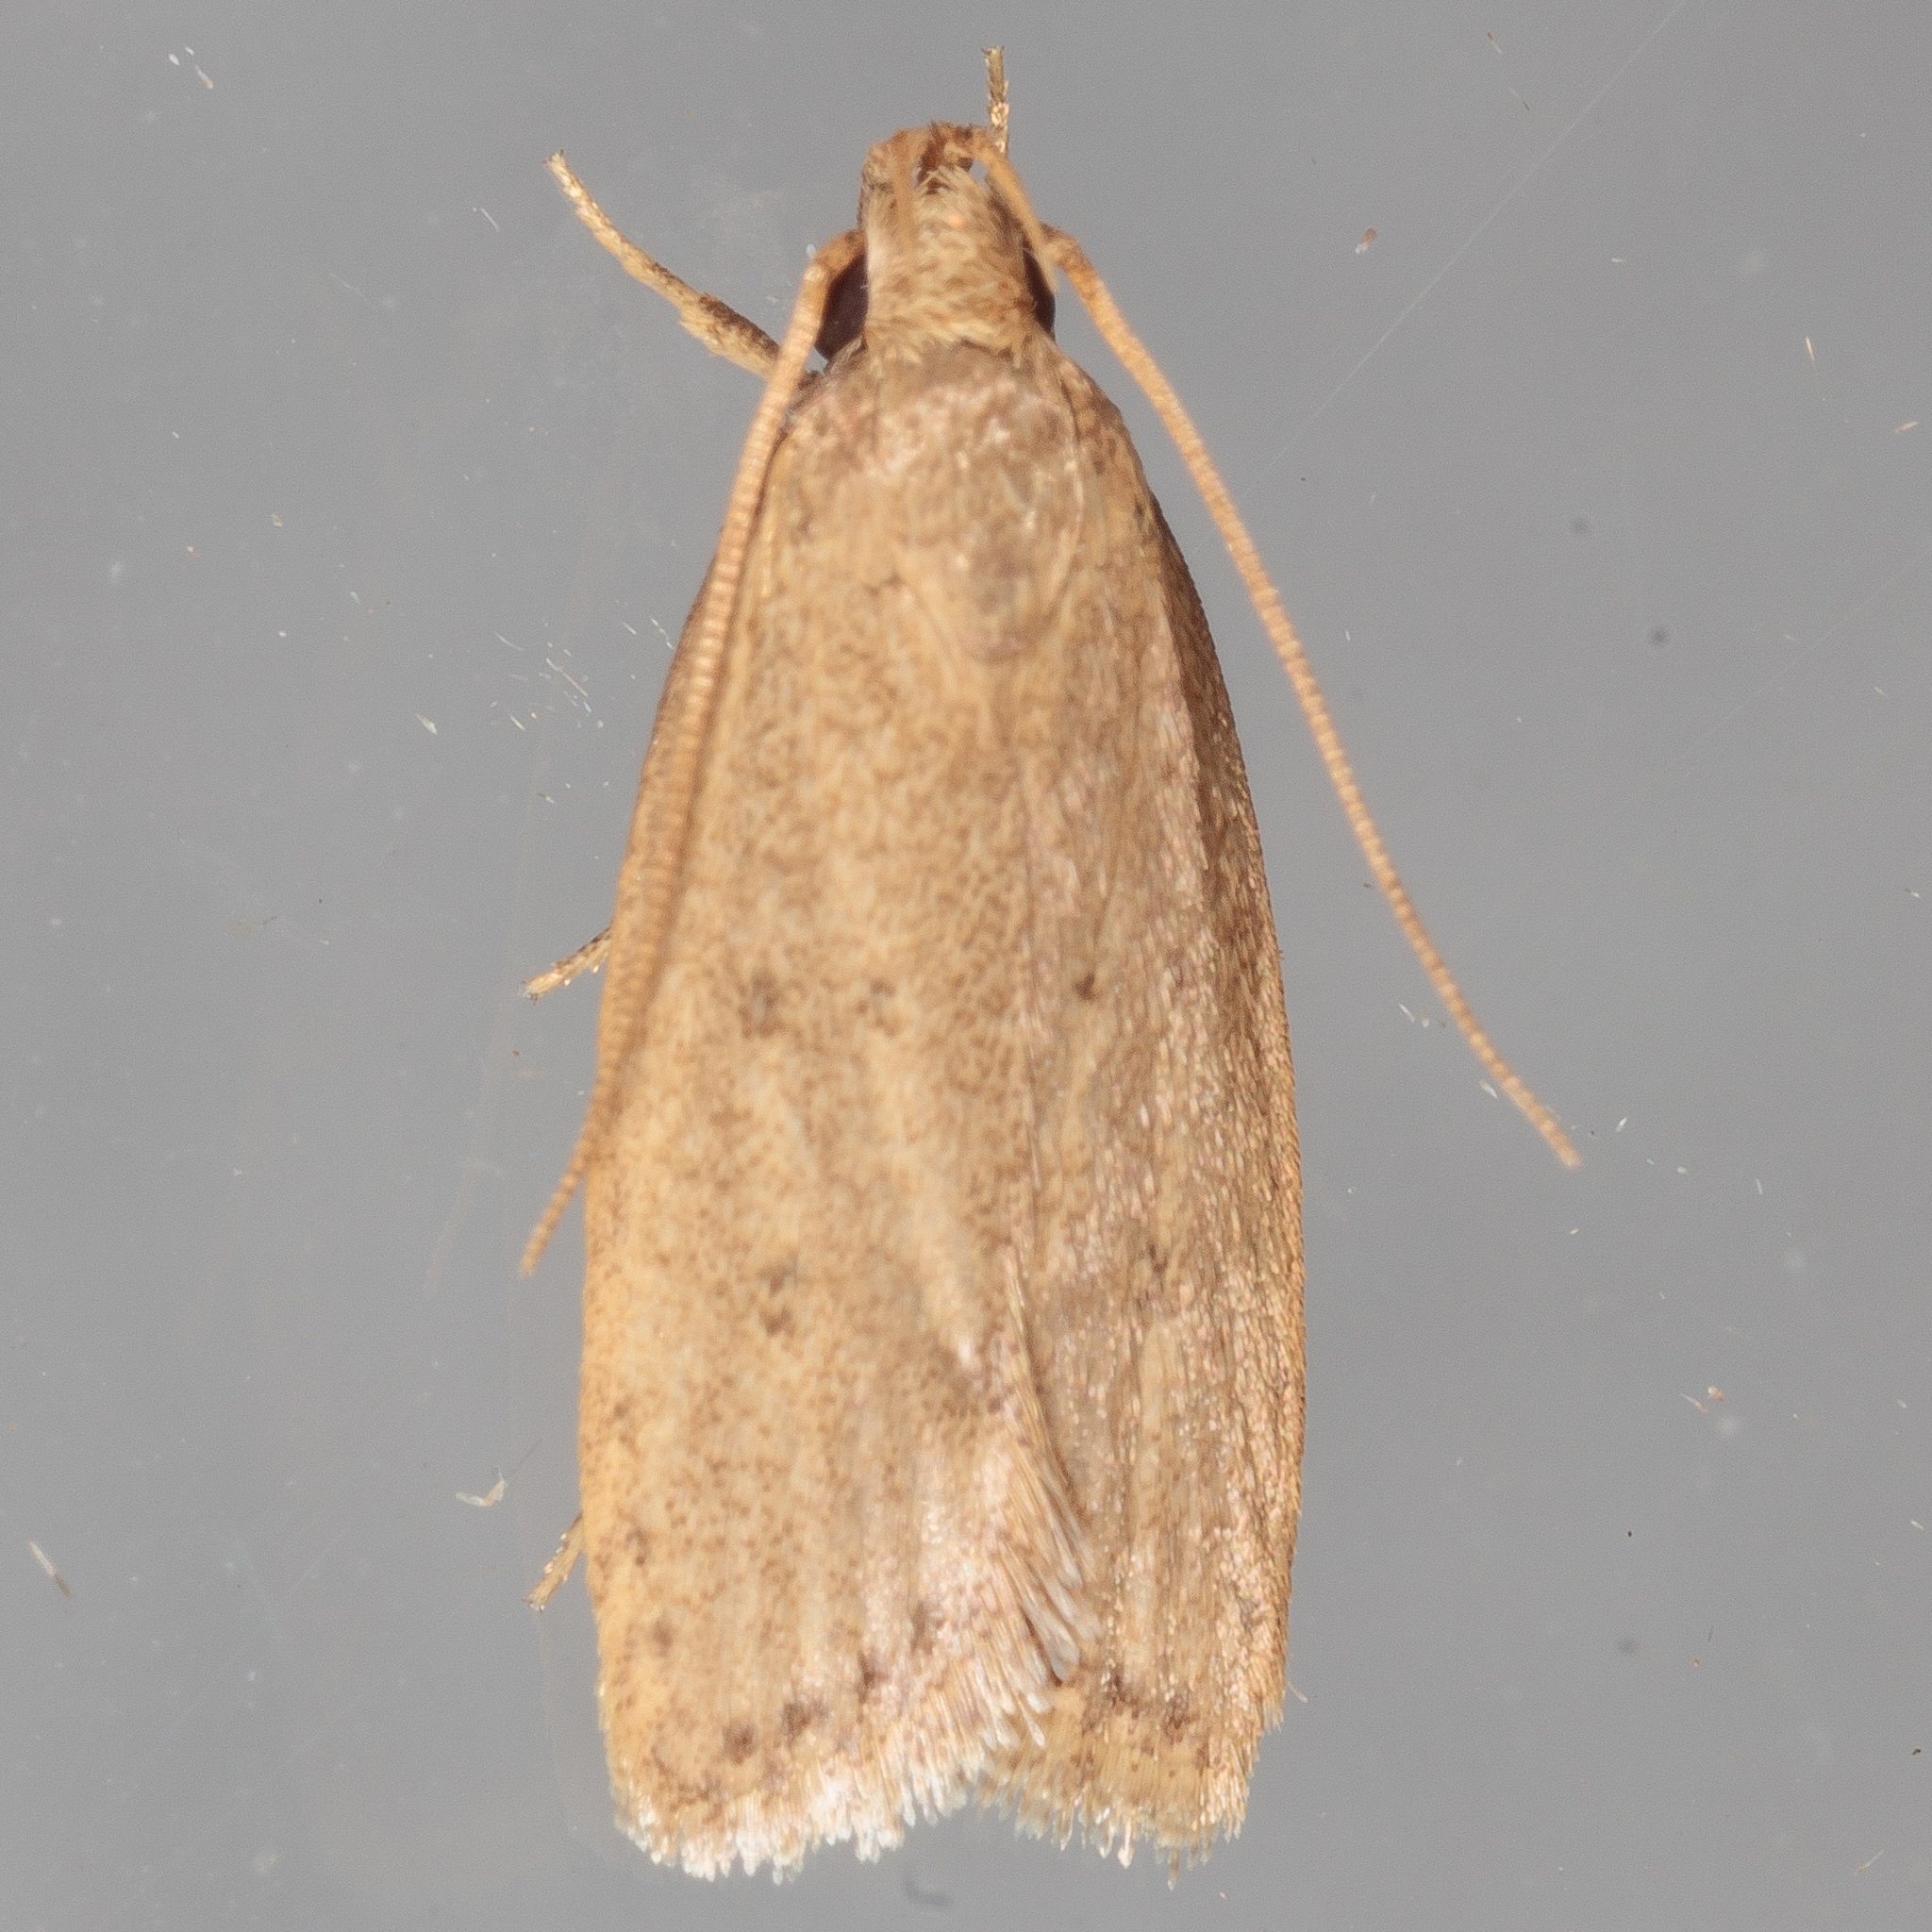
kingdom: Animalia
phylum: Arthropoda
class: Insecta
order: Lepidoptera
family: Autostichidae
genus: Autosticha
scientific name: Autosticha kyotensis
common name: Kyoto moth
